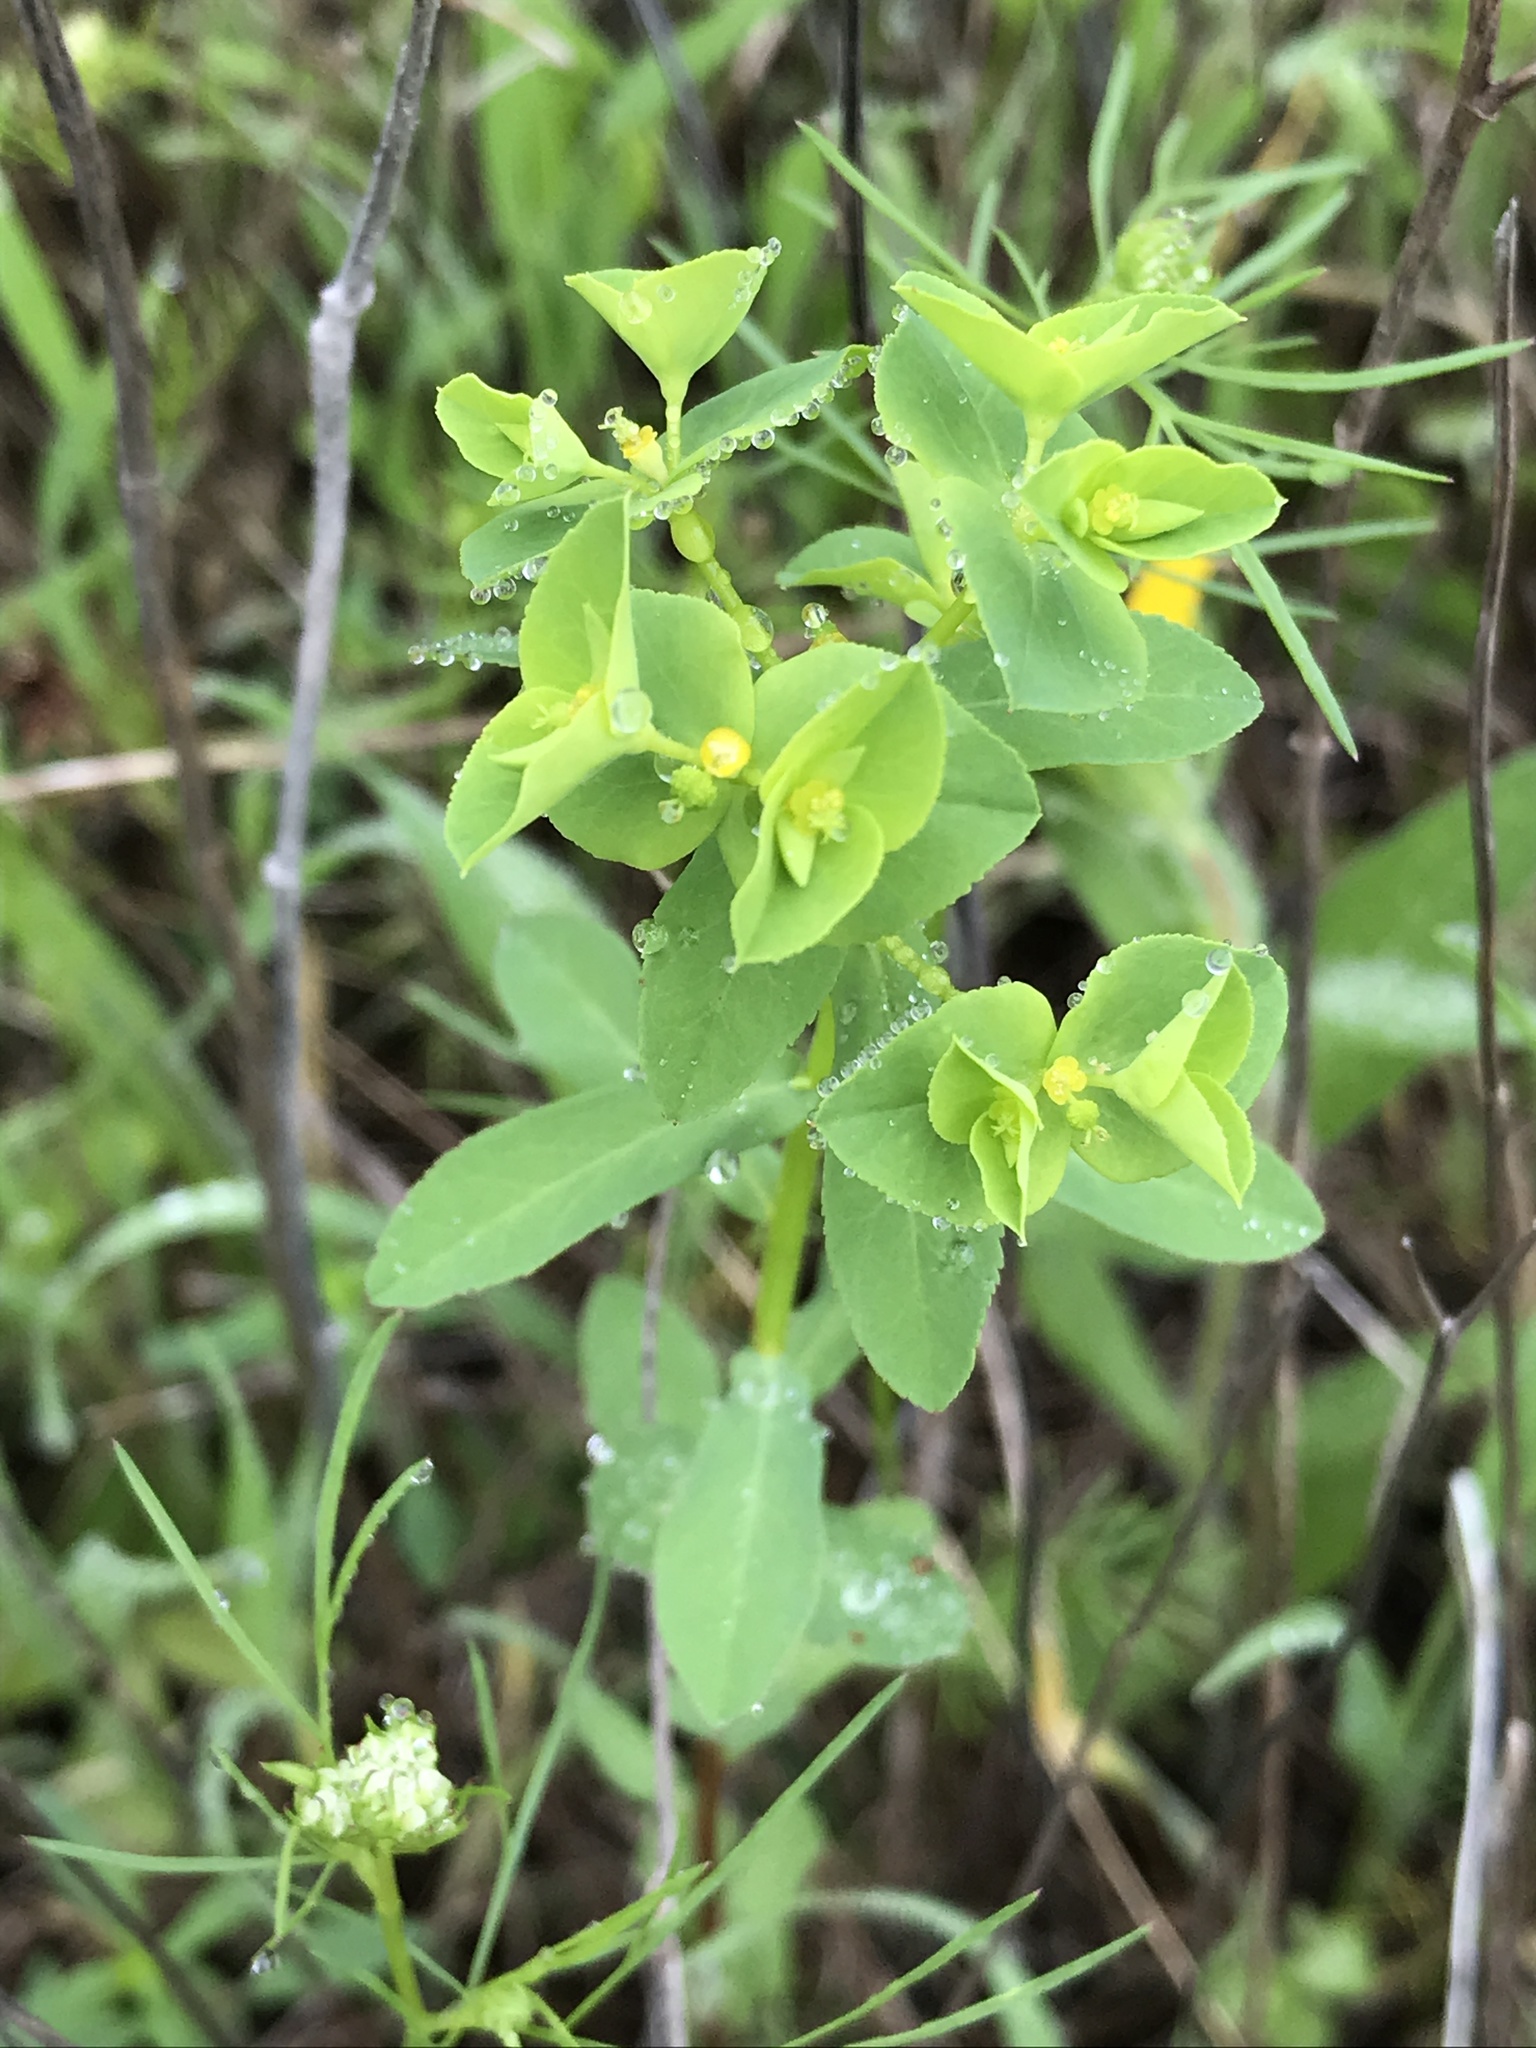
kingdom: Plantae
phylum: Tracheophyta
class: Magnoliopsida
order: Malpighiales
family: Euphorbiaceae
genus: Euphorbia
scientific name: Euphorbia spathulata
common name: Blunt spurge
